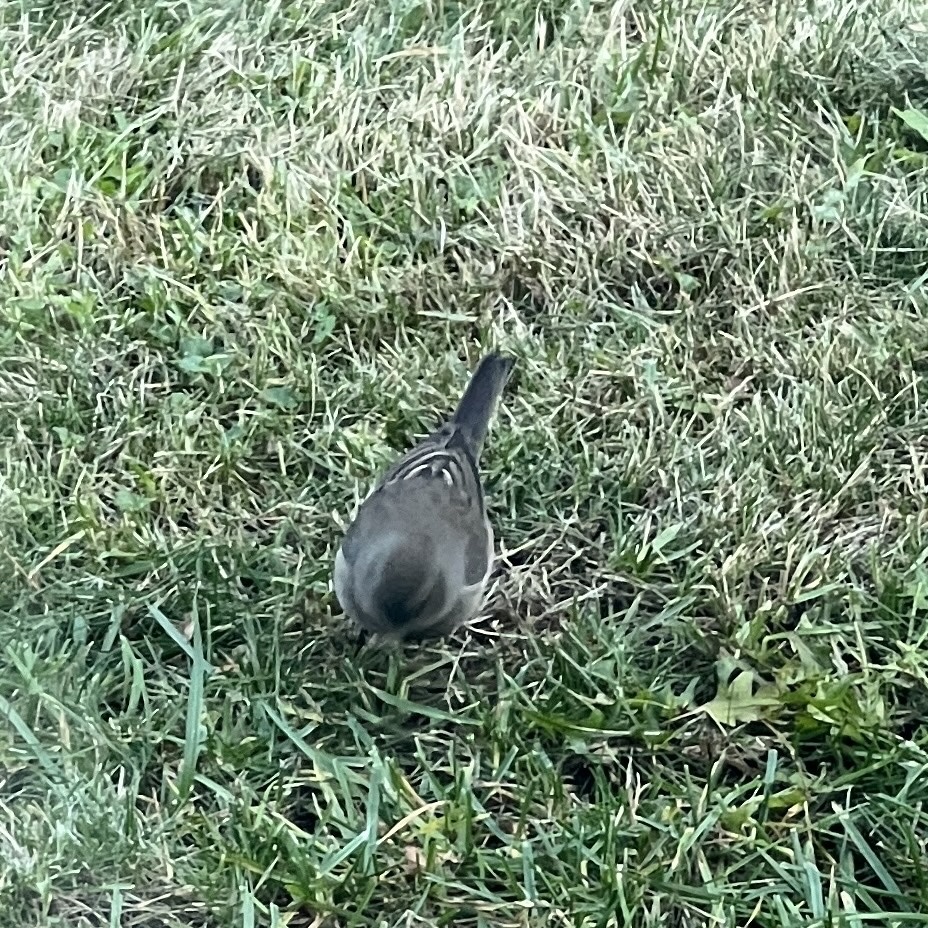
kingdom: Animalia
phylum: Chordata
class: Aves
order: Passeriformes
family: Passerellidae
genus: Junco
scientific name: Junco hyemalis
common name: Dark-eyed junco
